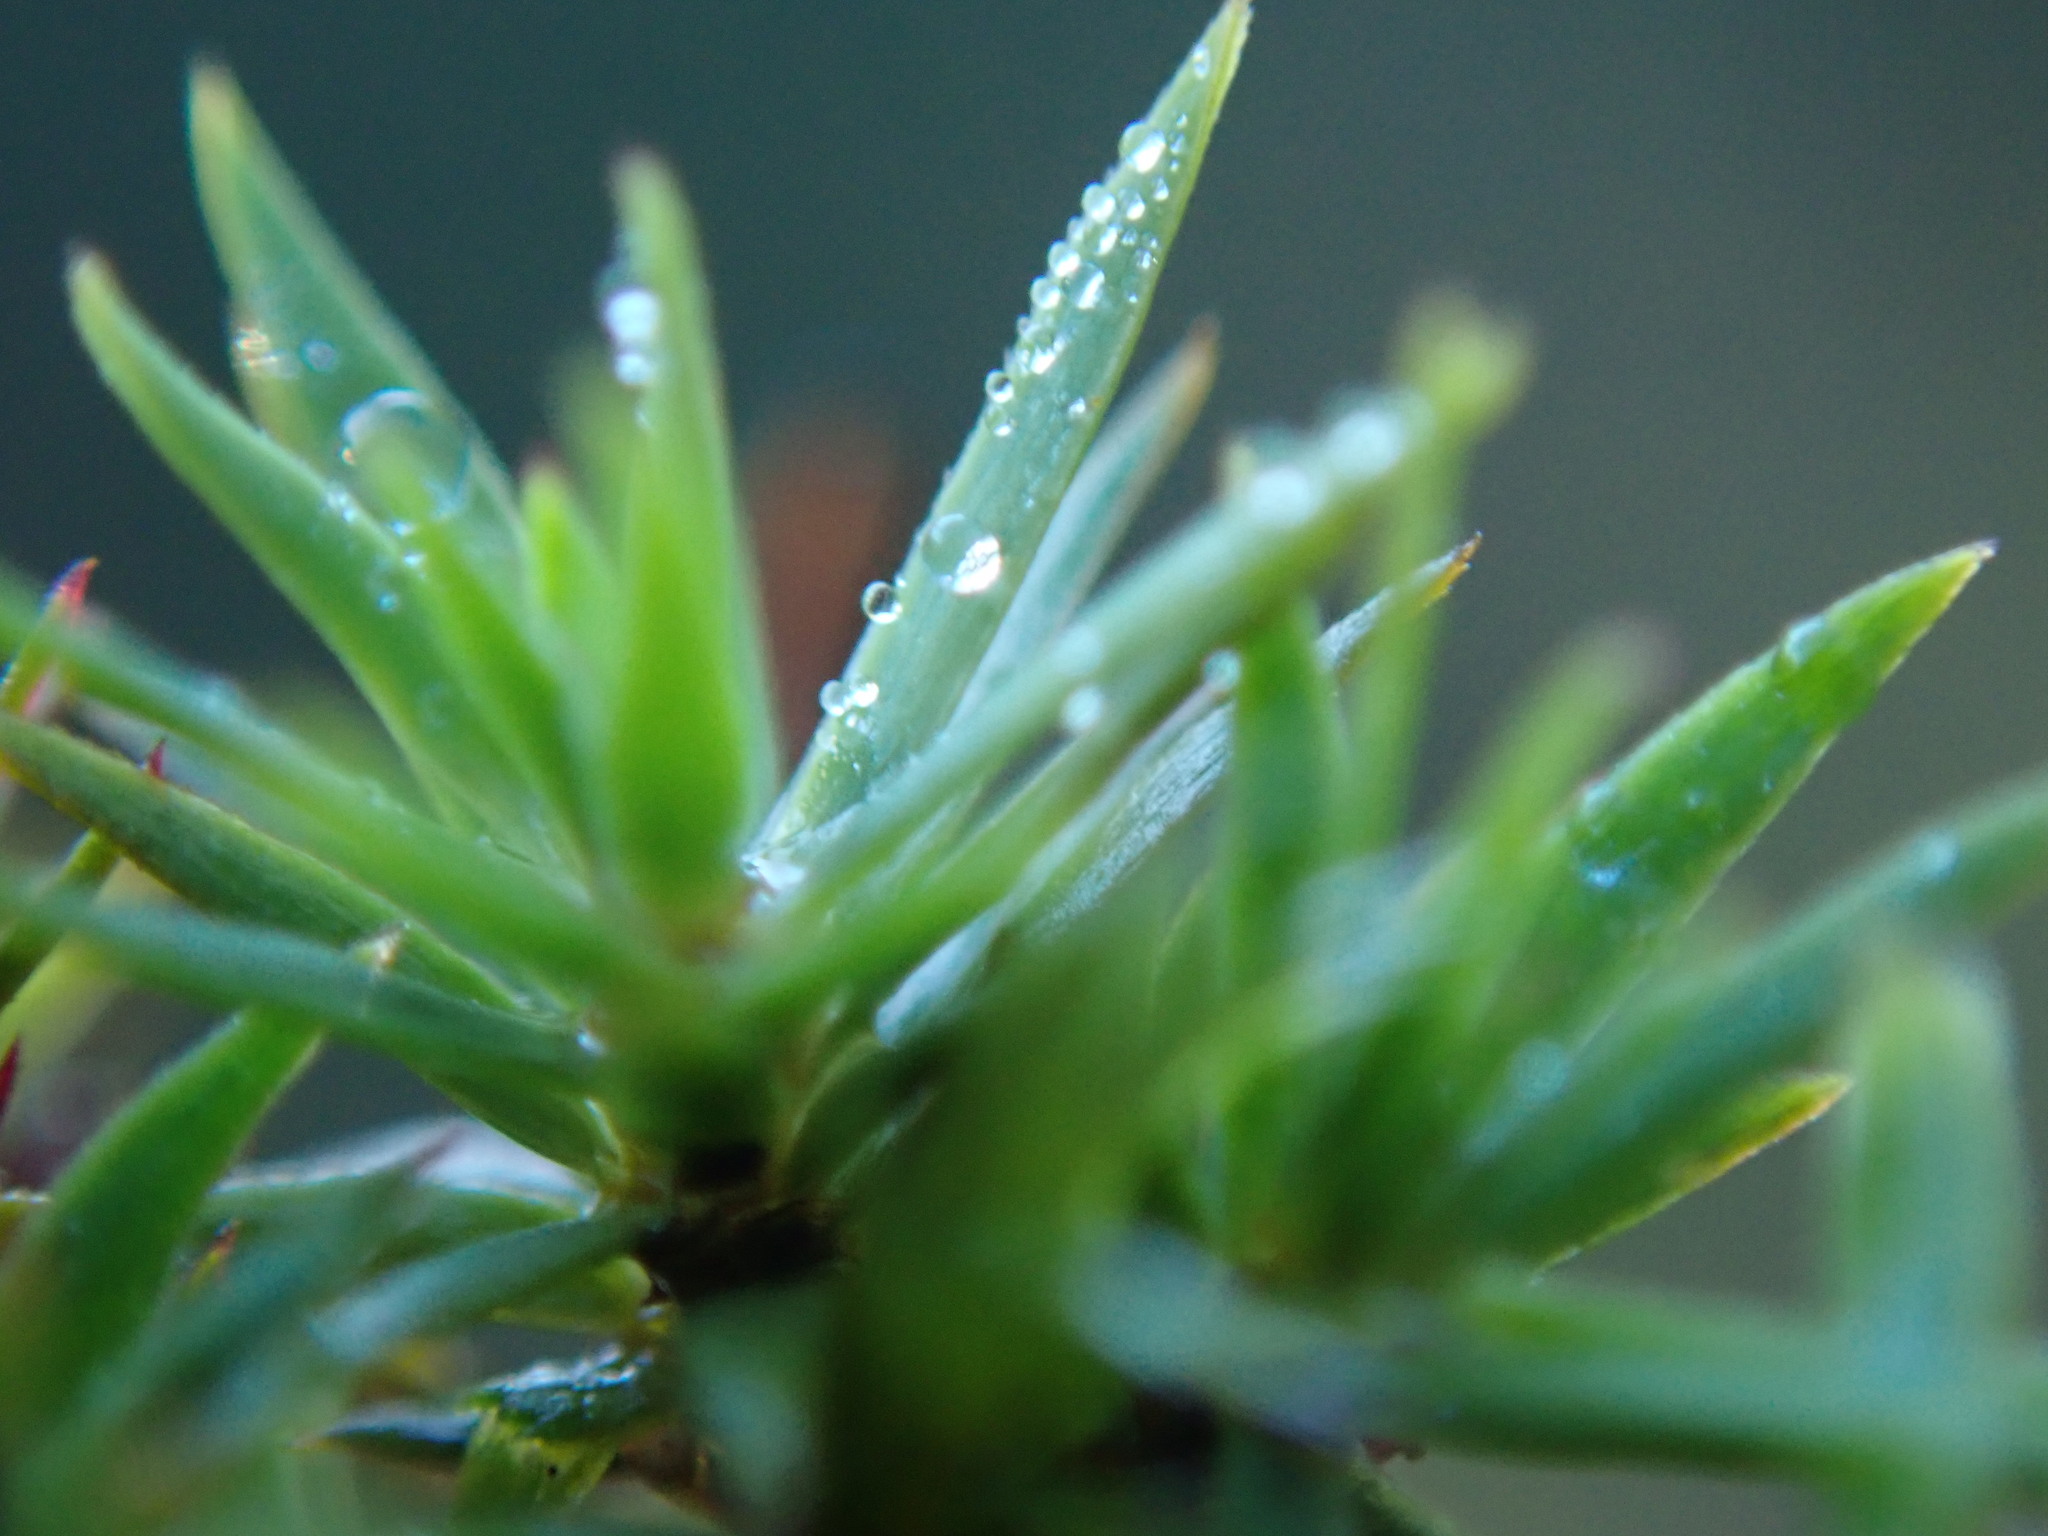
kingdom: Plantae
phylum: Bryophyta
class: Polytrichopsida
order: Polytrichales
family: Polytrichaceae
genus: Pogonatum
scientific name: Pogonatum urnigerum
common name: Urn hair moss
